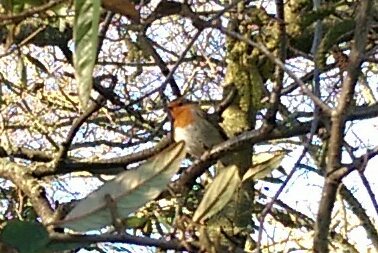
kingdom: Animalia
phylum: Chordata
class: Aves
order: Passeriformes
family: Muscicapidae
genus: Erithacus
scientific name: Erithacus rubecula
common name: European robin
